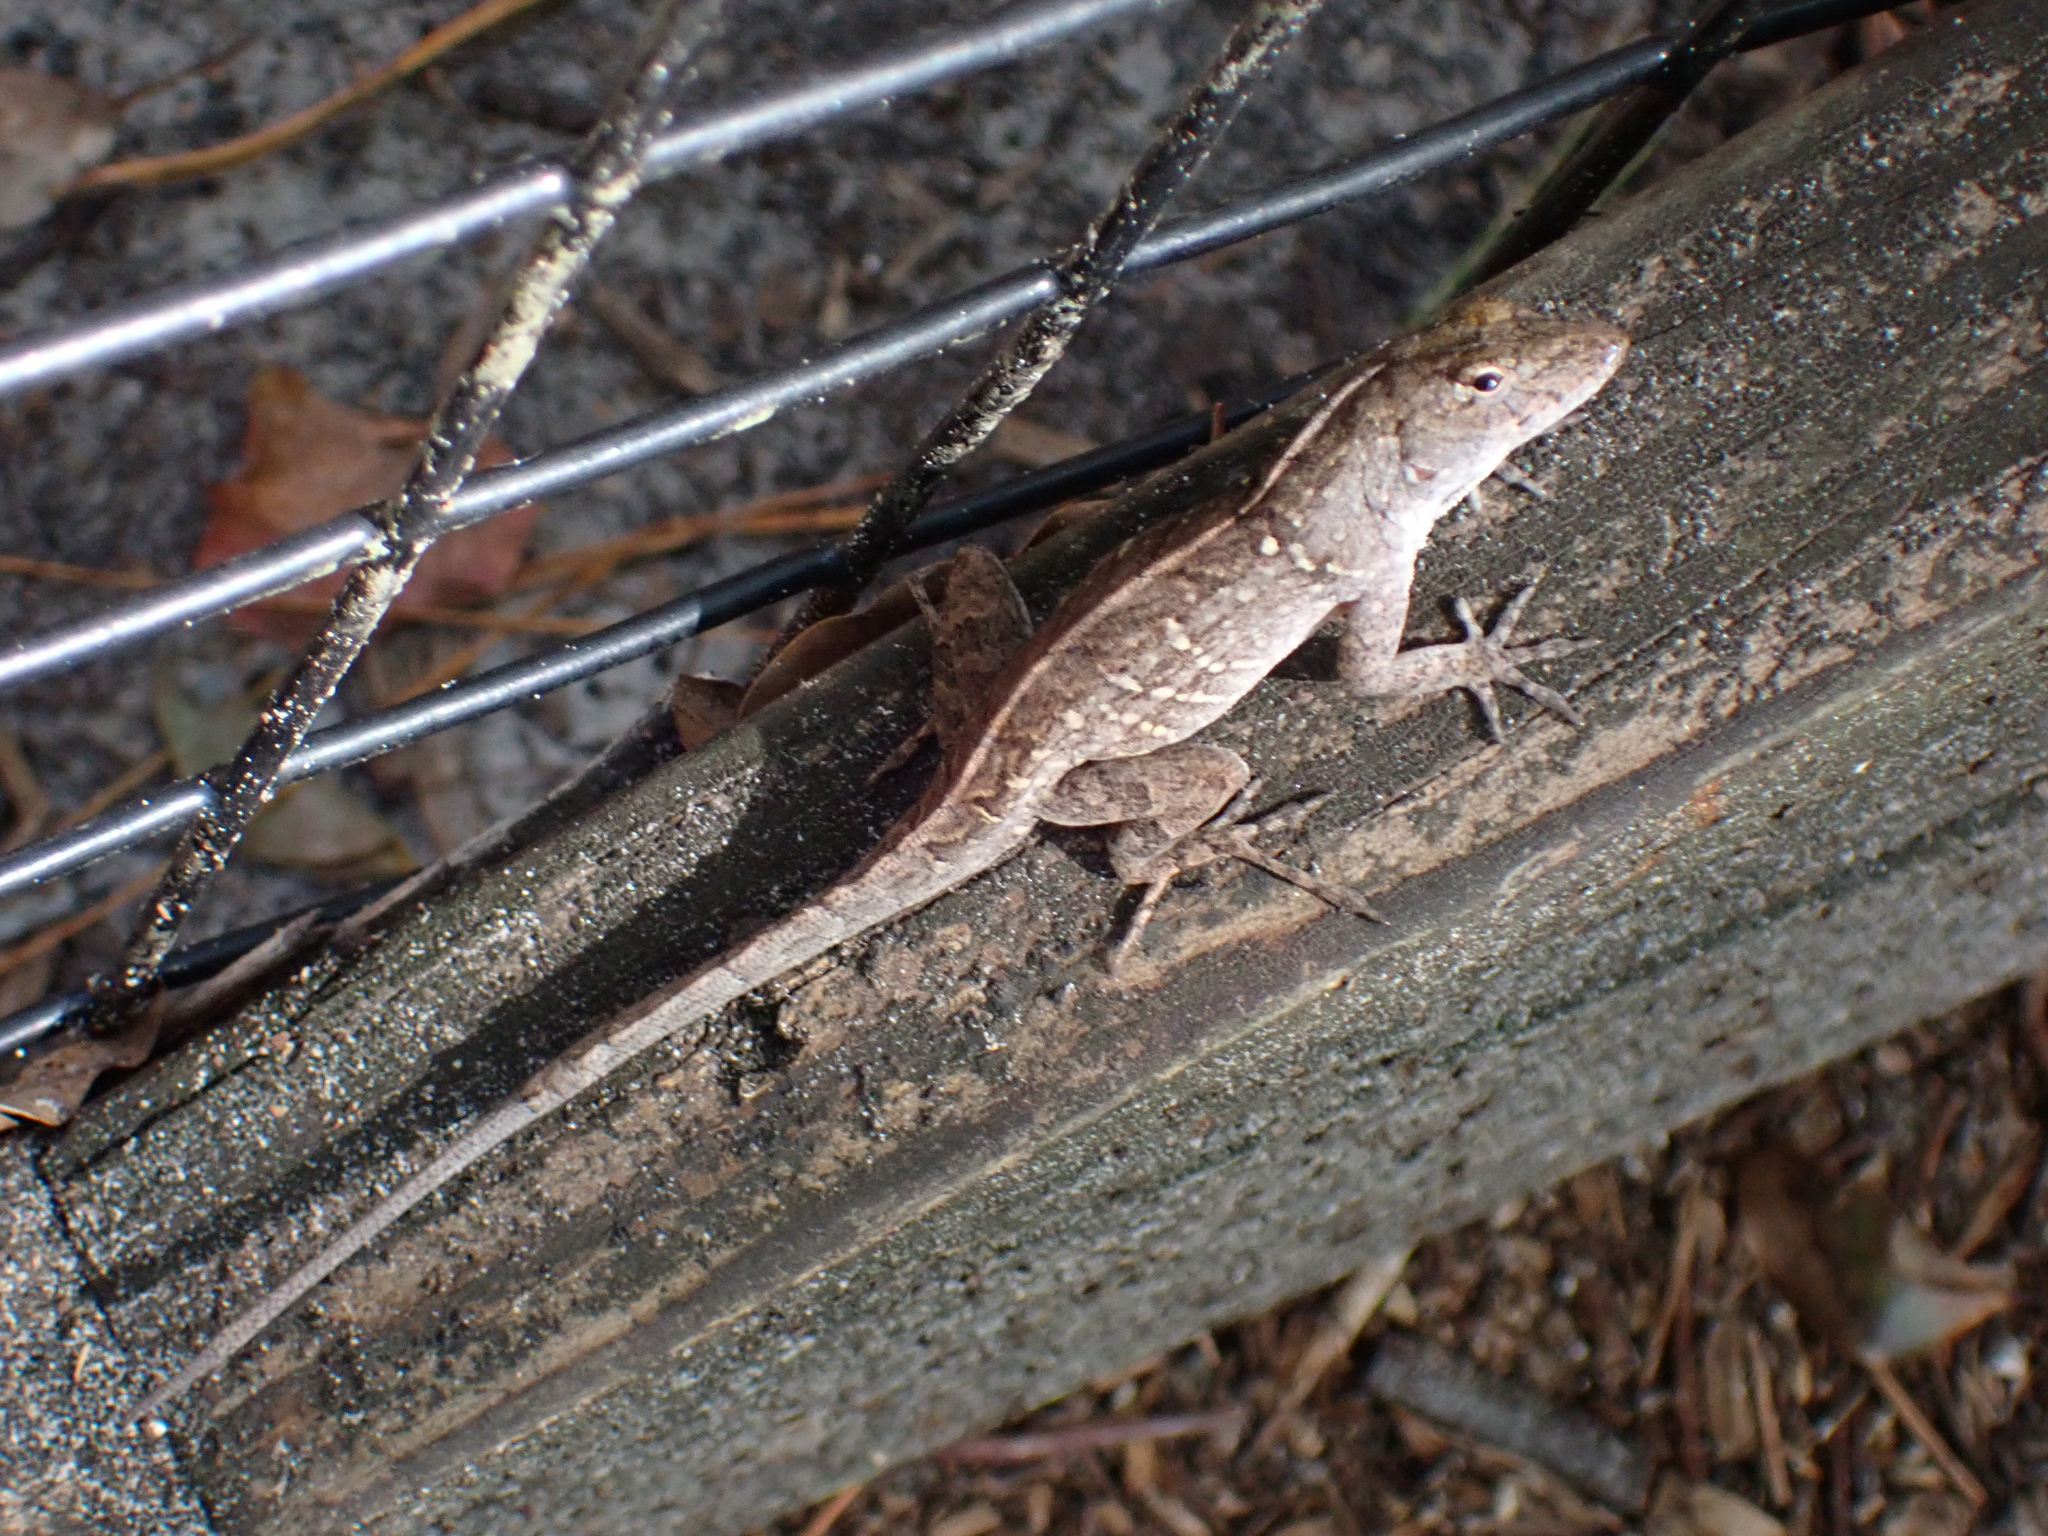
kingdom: Animalia
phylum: Chordata
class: Squamata
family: Dactyloidae
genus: Anolis
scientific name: Anolis sagrei
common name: Brown anole
